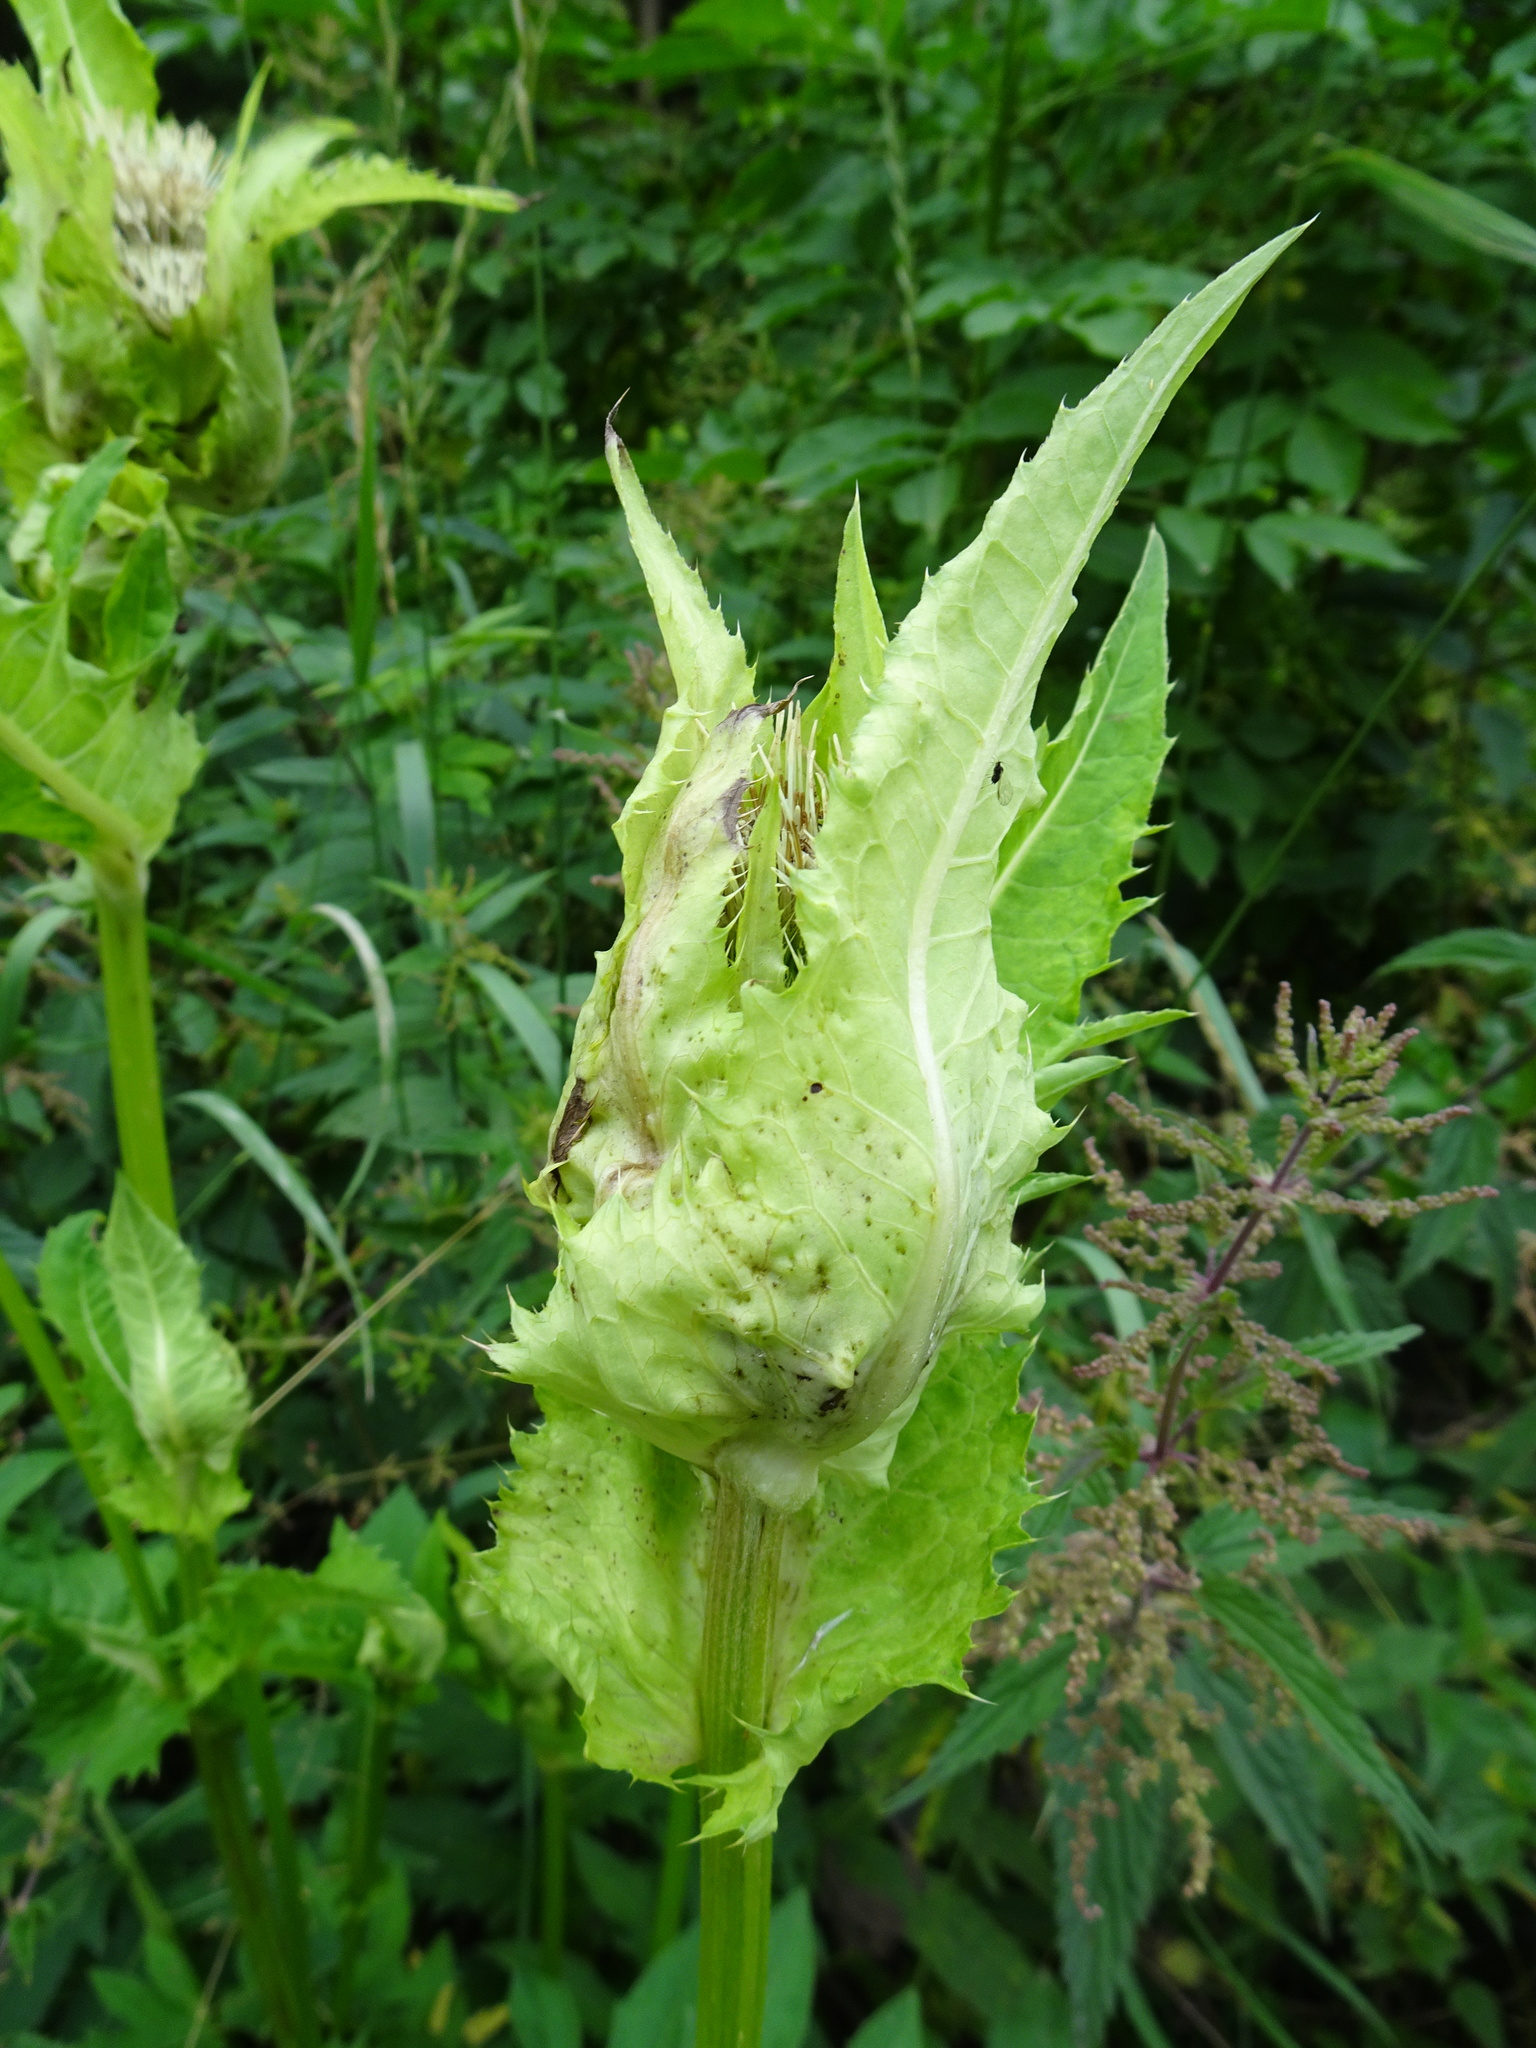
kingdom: Plantae
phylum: Tracheophyta
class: Magnoliopsida
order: Asterales
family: Asteraceae
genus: Cirsium
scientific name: Cirsium oleraceum
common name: Cabbage thistle
